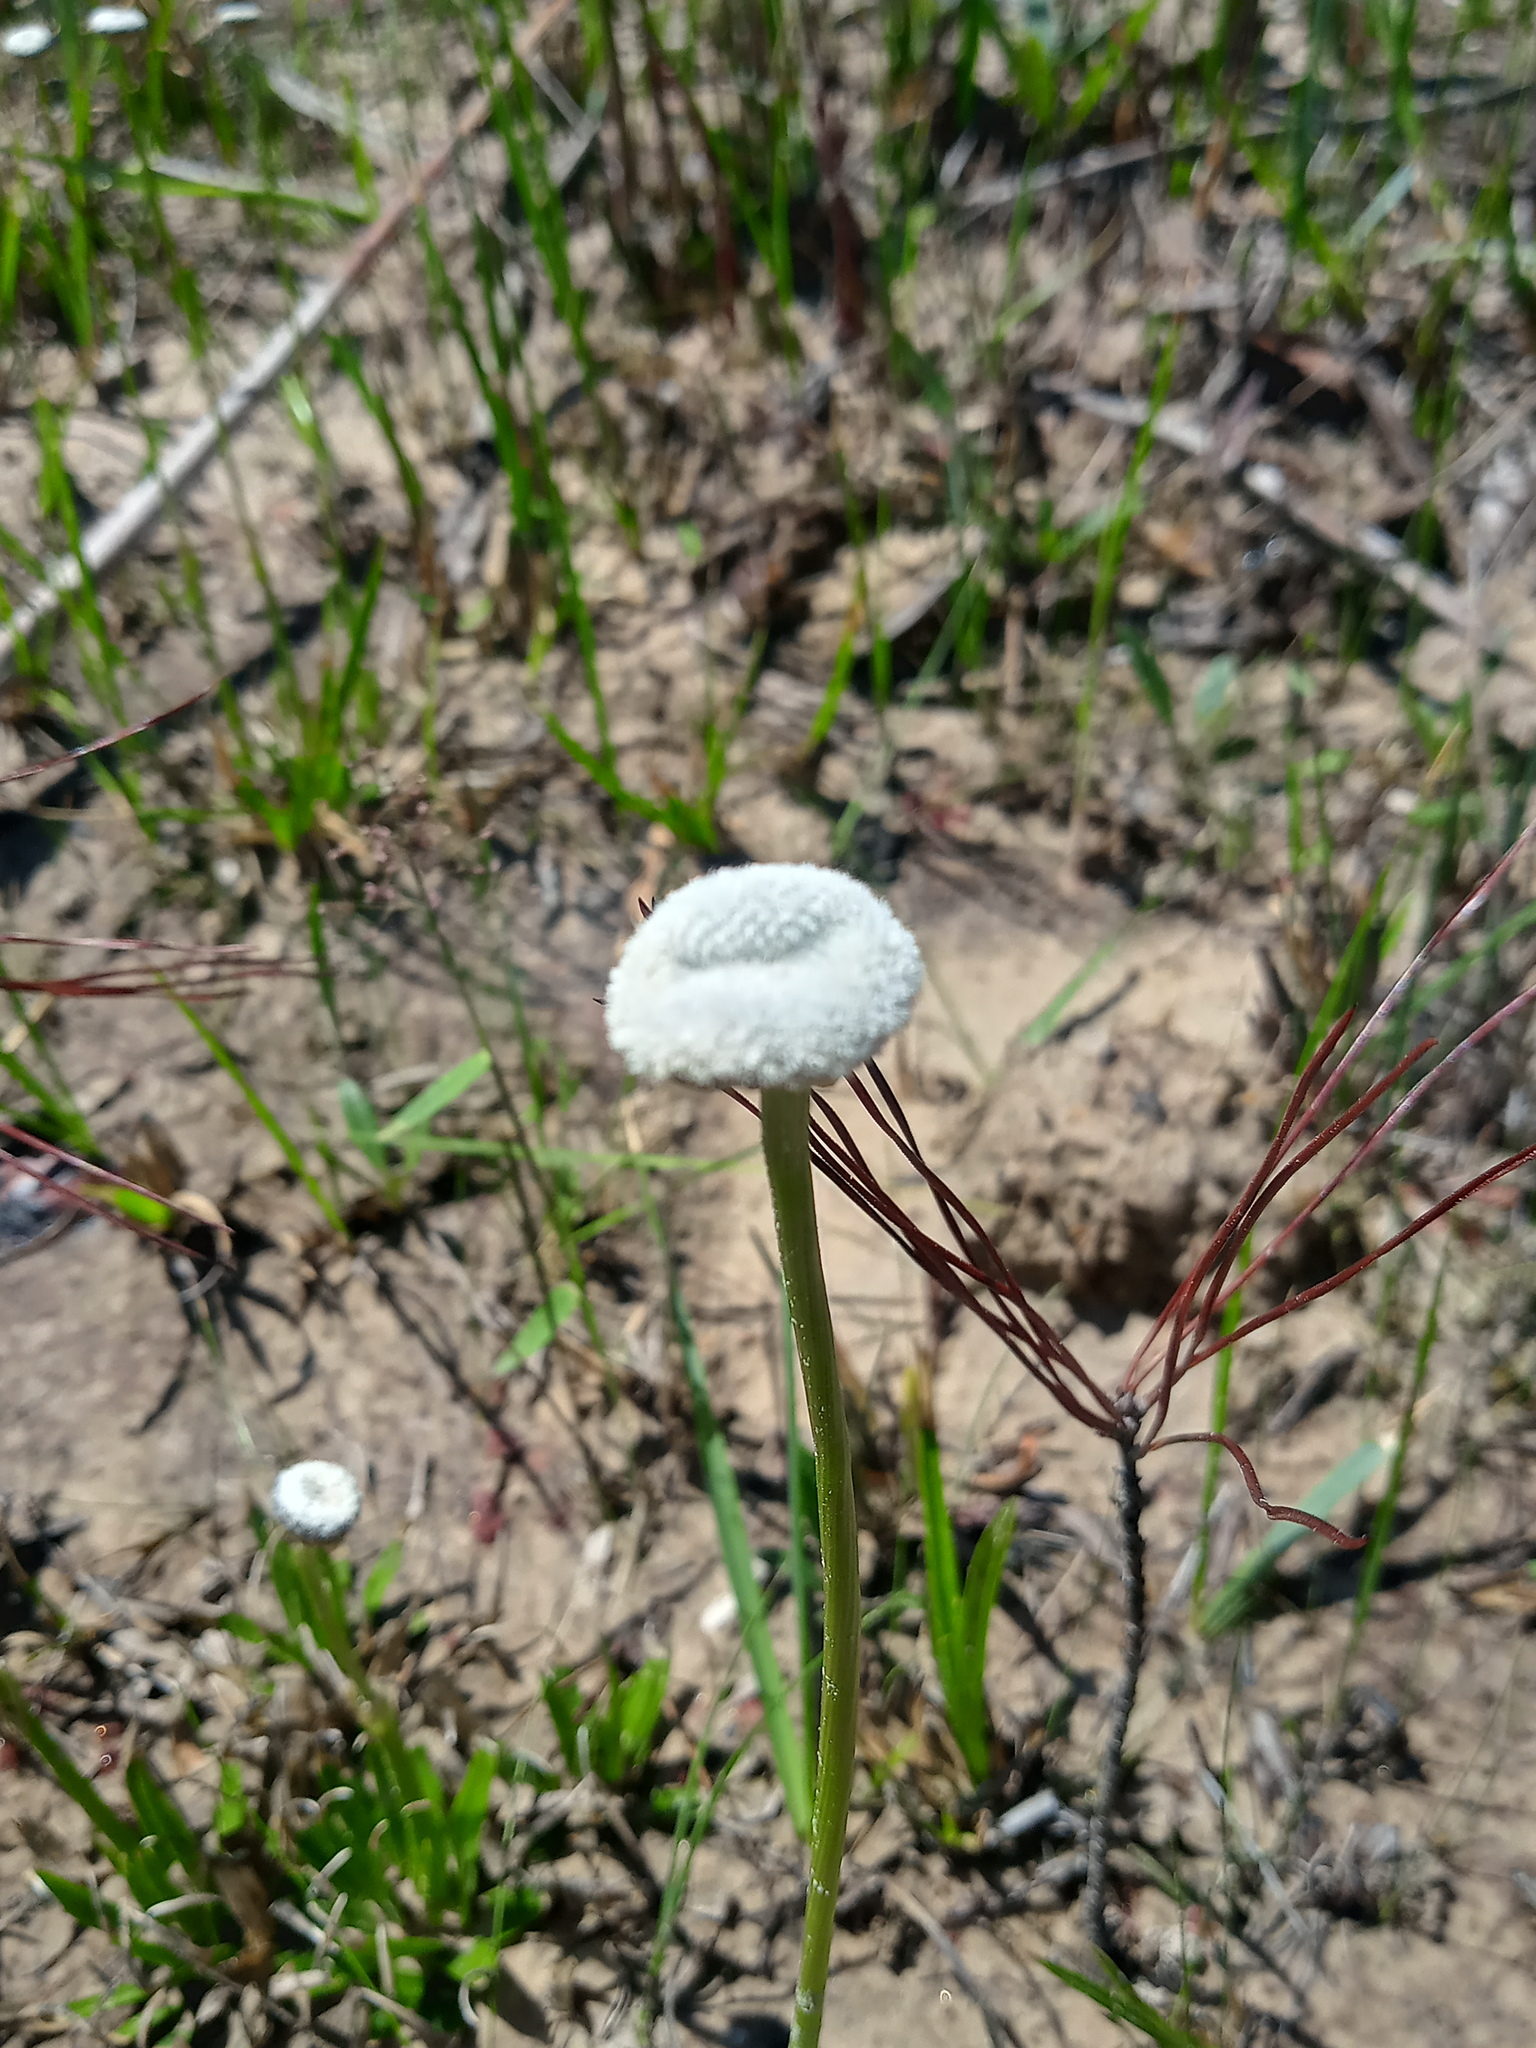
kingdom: Plantae
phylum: Tracheophyta
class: Liliopsida
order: Poales
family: Eriocaulaceae
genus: Eriocaulon
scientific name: Eriocaulon compressum
